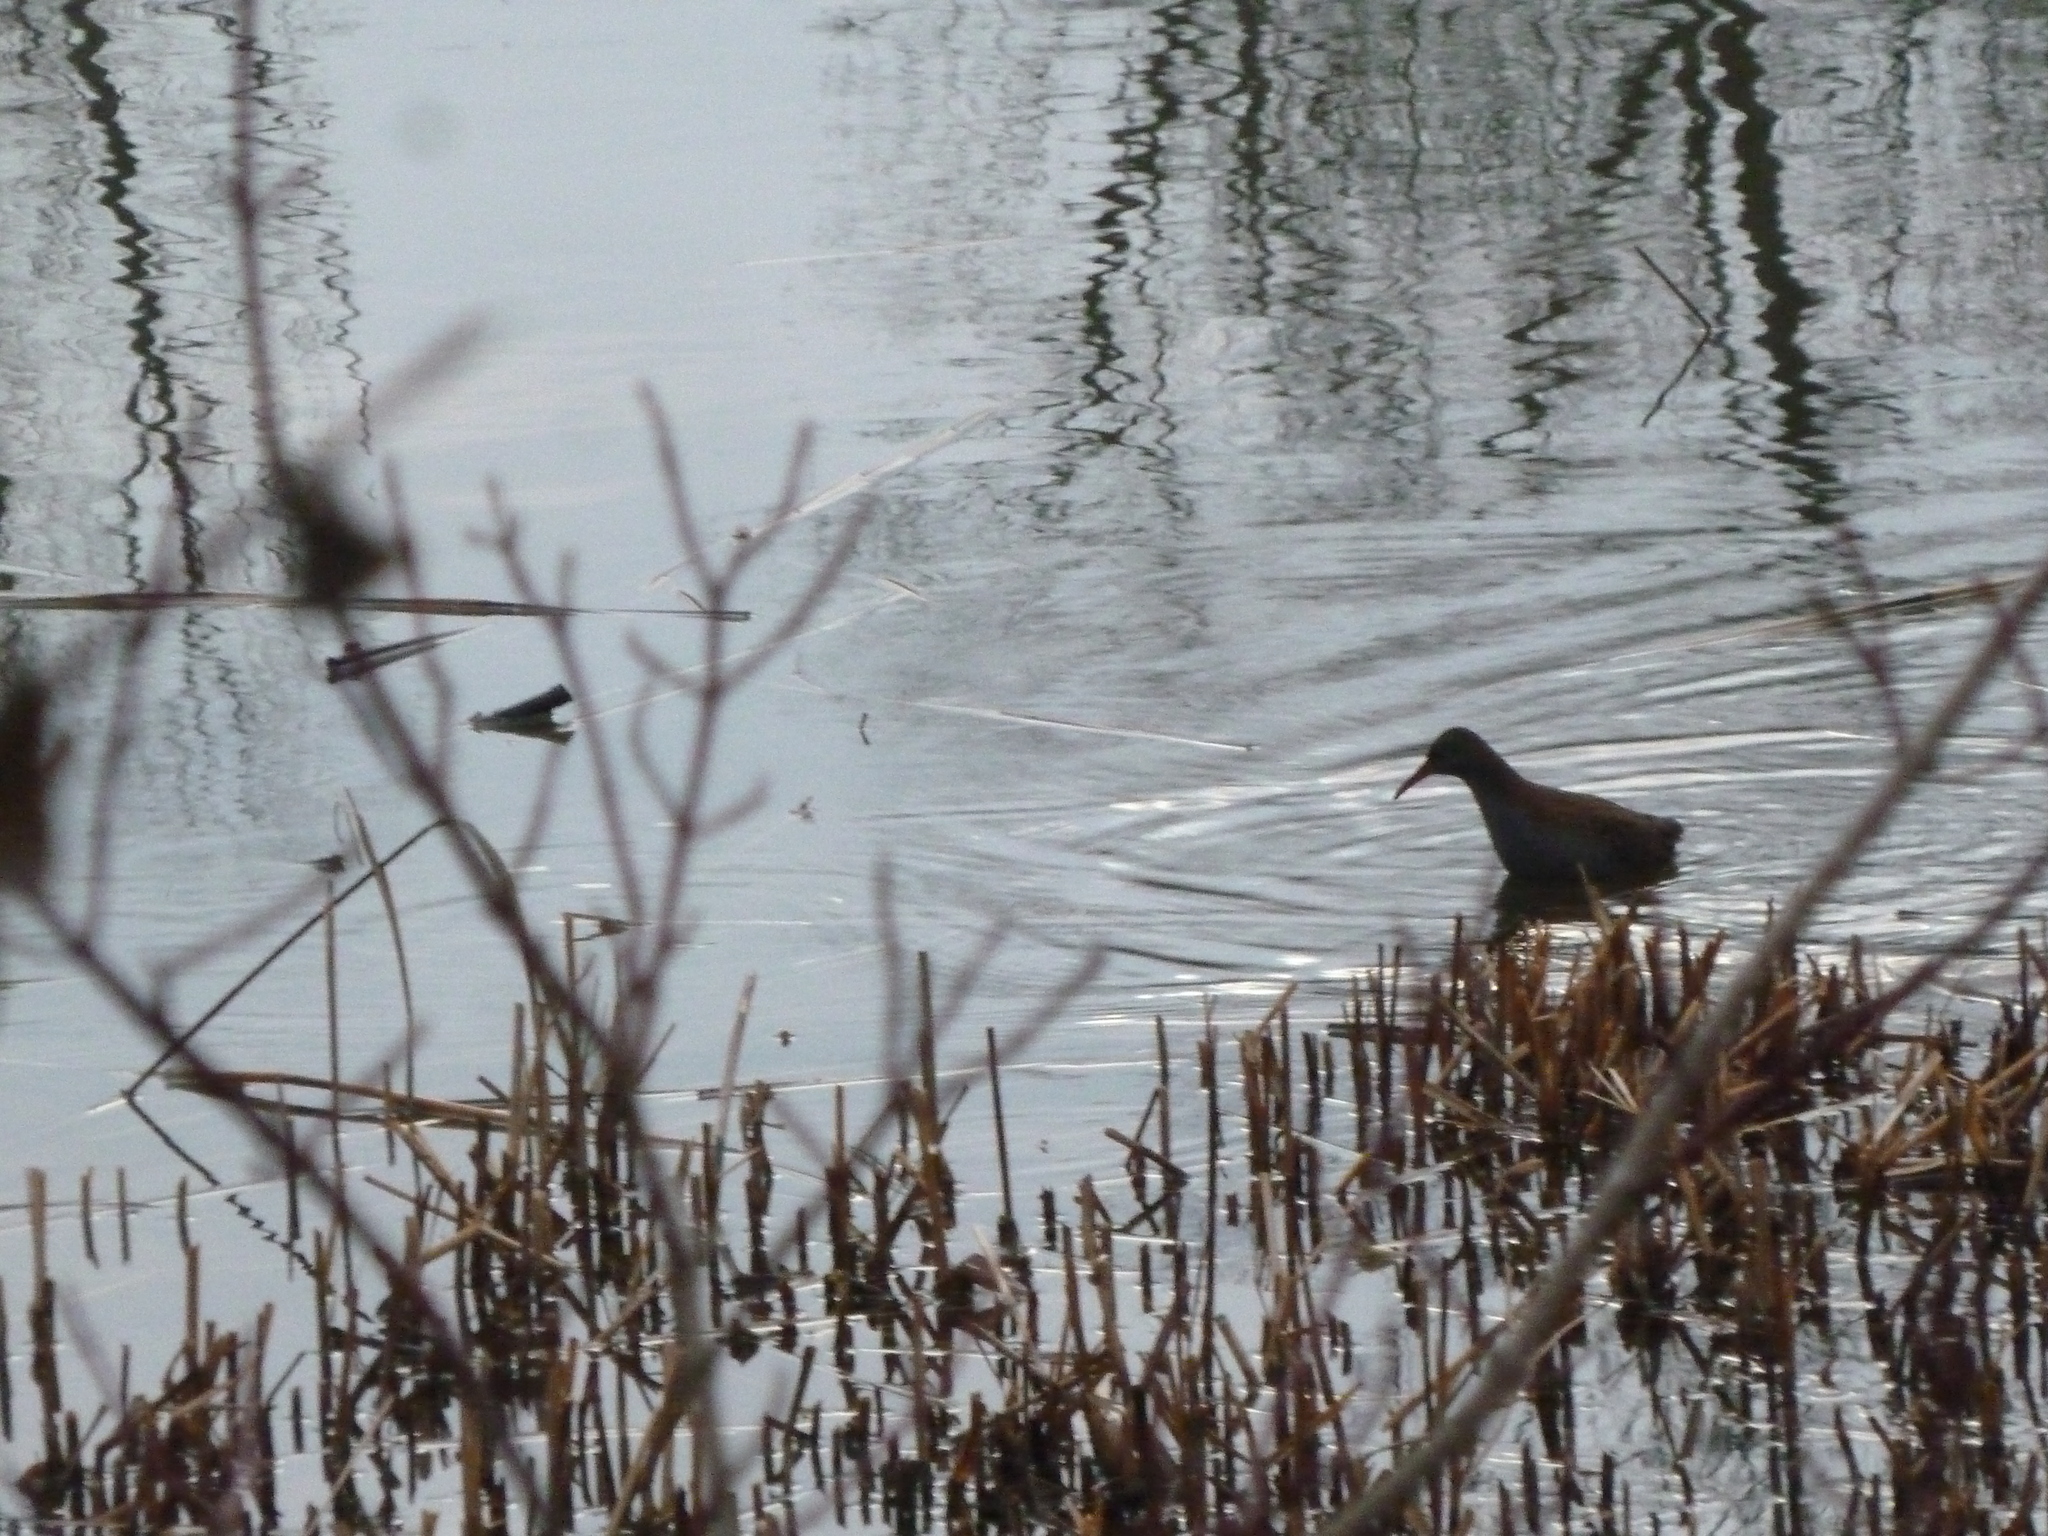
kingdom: Animalia
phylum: Chordata
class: Aves
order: Gruiformes
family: Rallidae
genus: Rallus
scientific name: Rallus aquaticus
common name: Water rail
